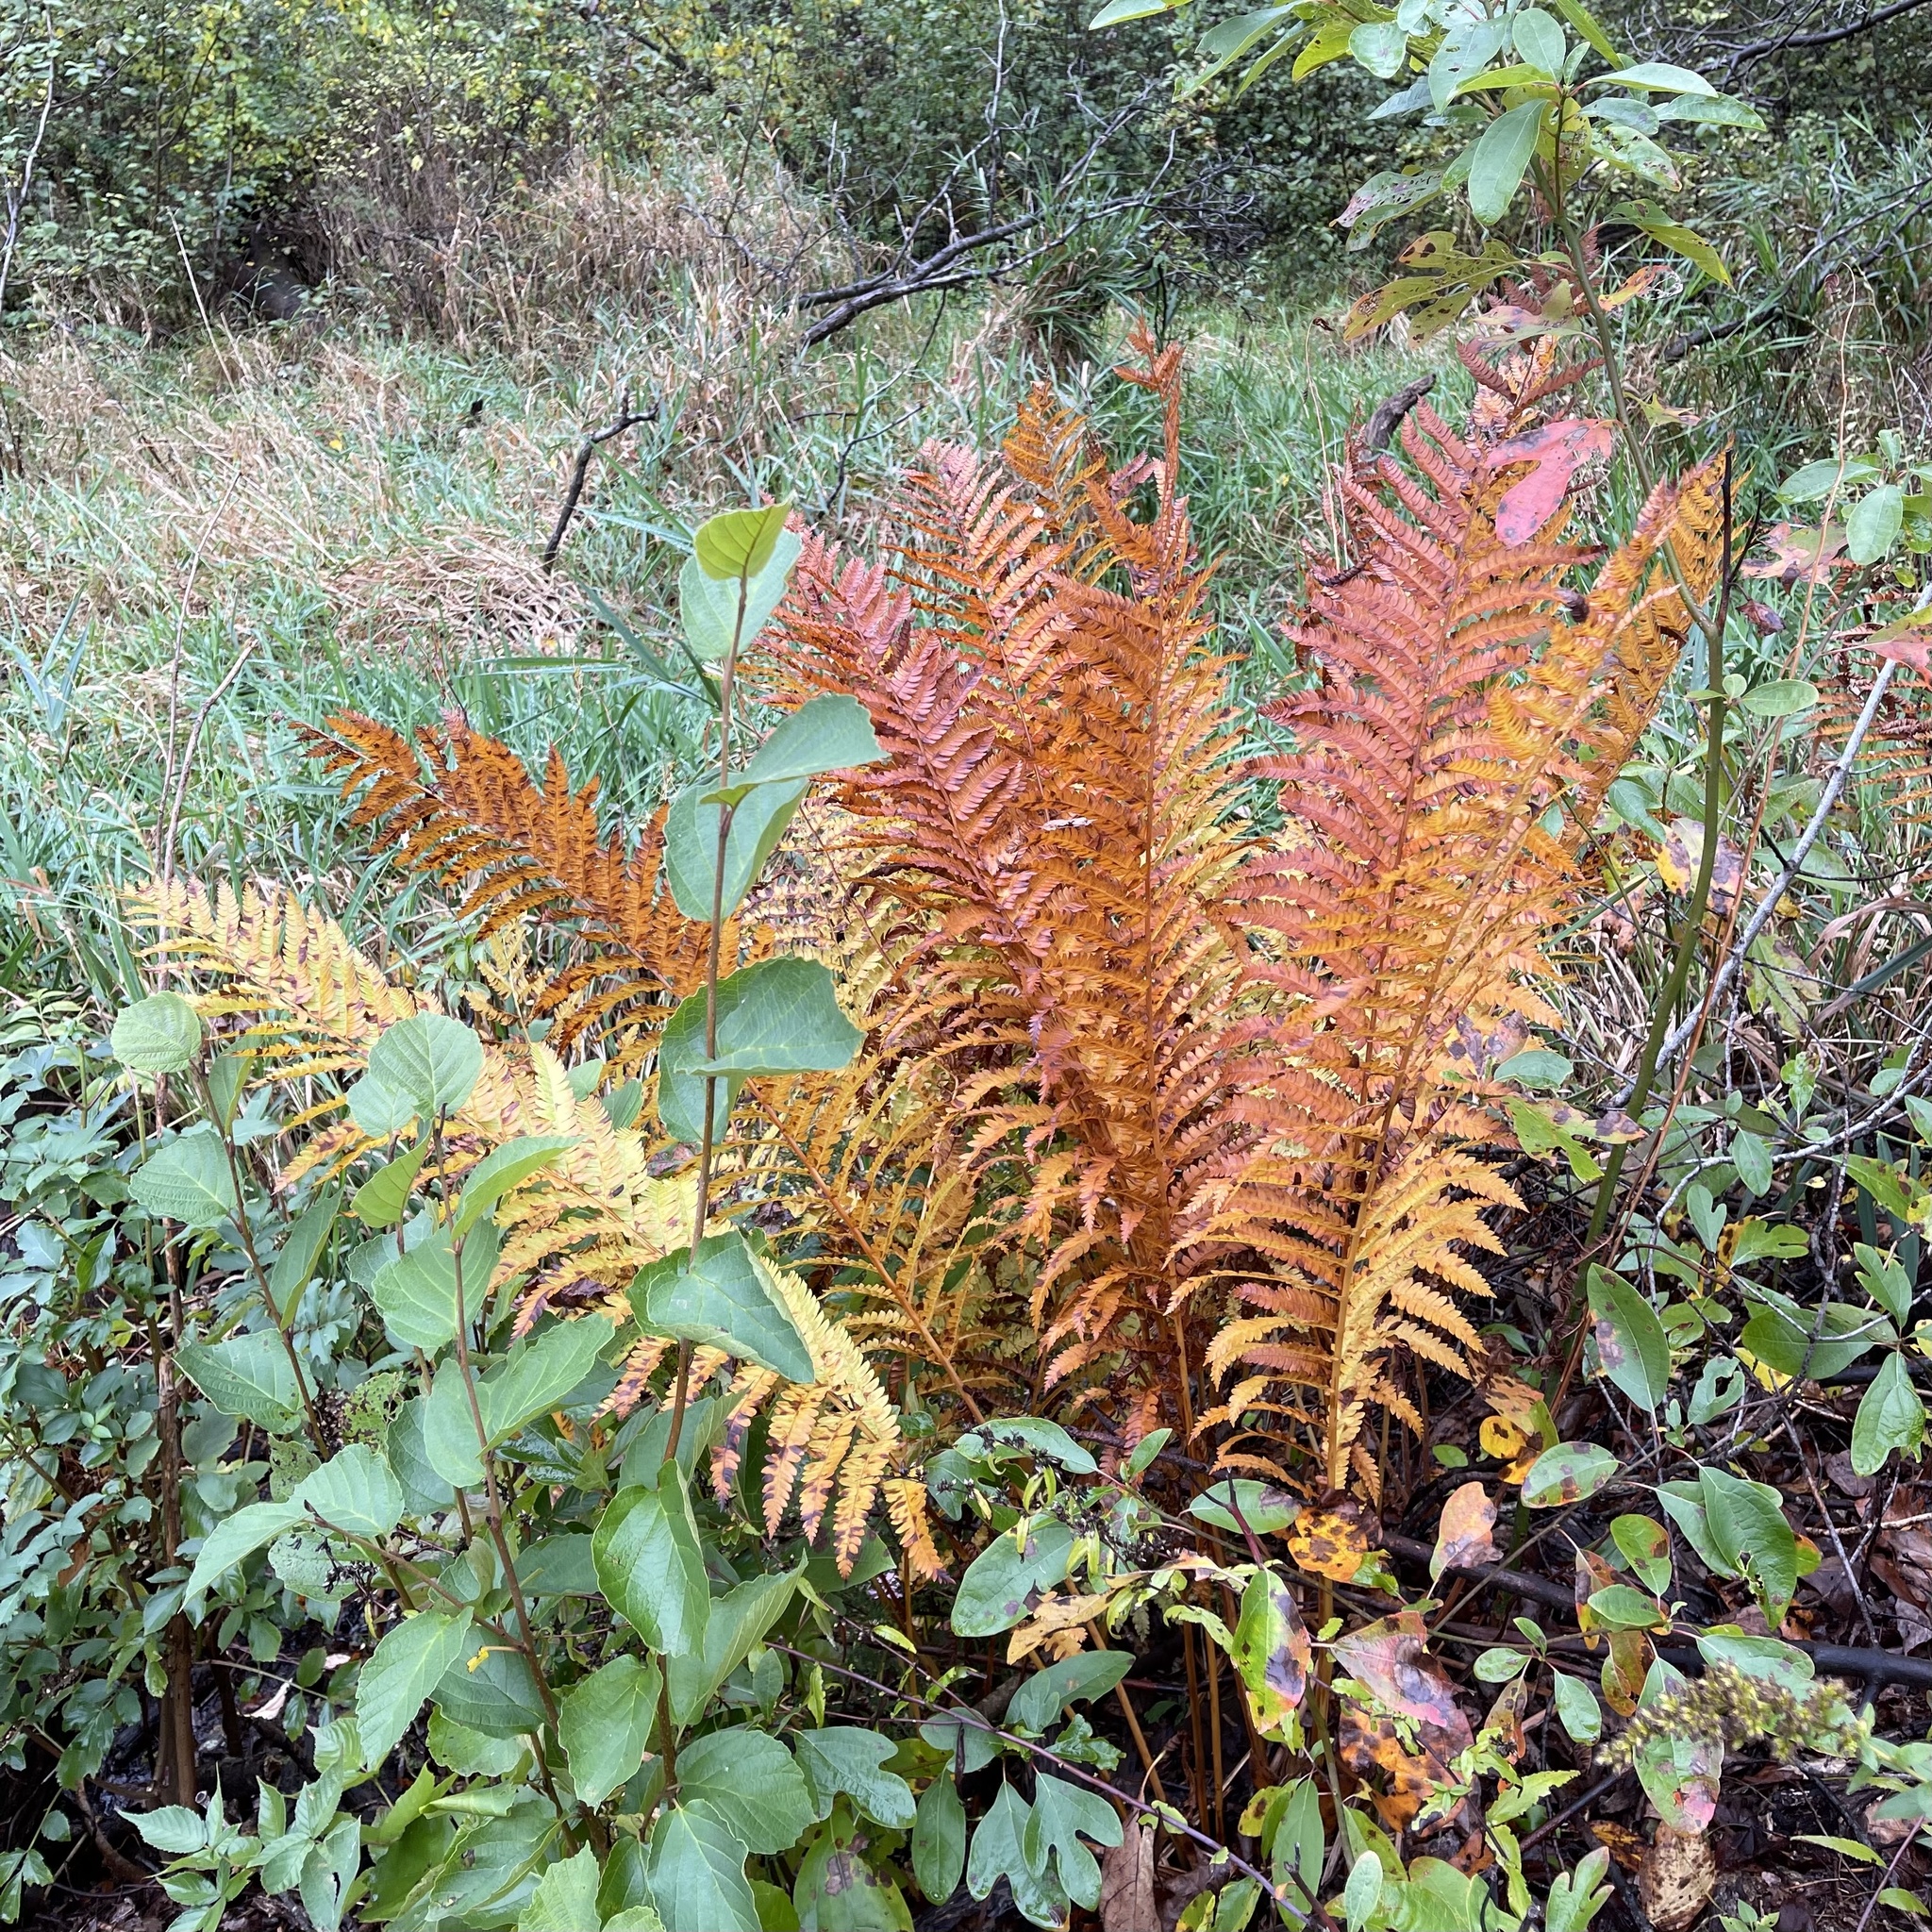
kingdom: Plantae
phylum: Tracheophyta
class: Polypodiopsida
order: Osmundales
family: Osmundaceae
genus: Osmundastrum
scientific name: Osmundastrum cinnamomeum
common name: Cinnamon fern
